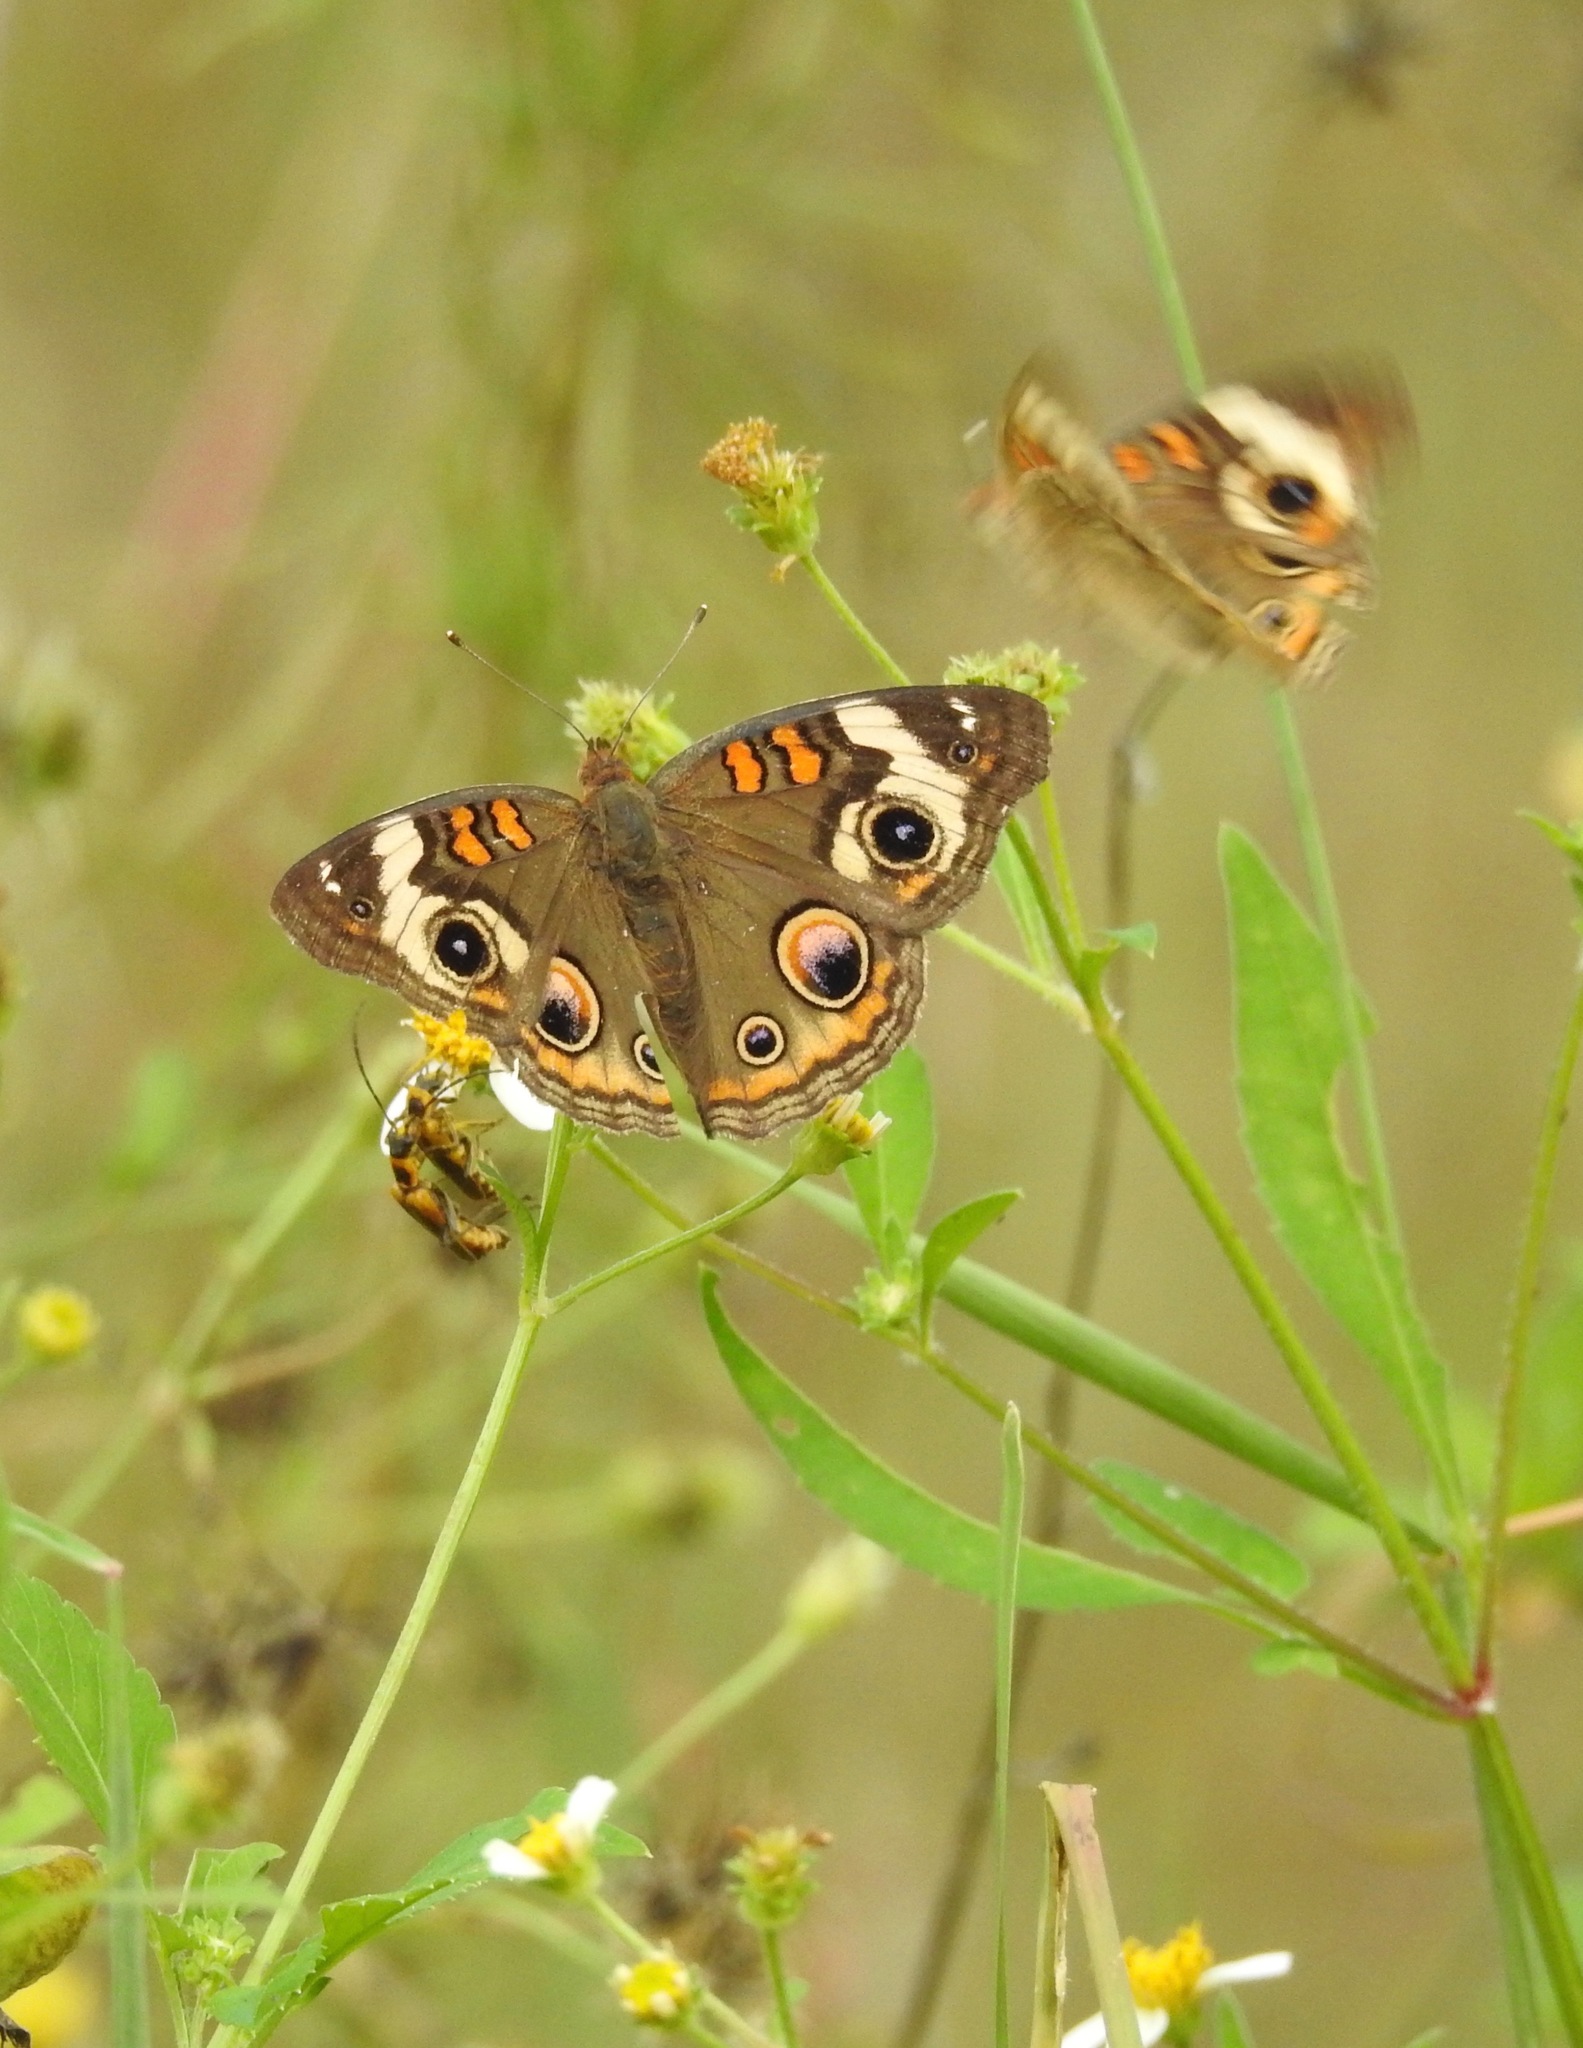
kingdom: Animalia
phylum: Arthropoda
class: Insecta
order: Lepidoptera
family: Nymphalidae
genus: Junonia
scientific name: Junonia coenia
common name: Common buckeye
